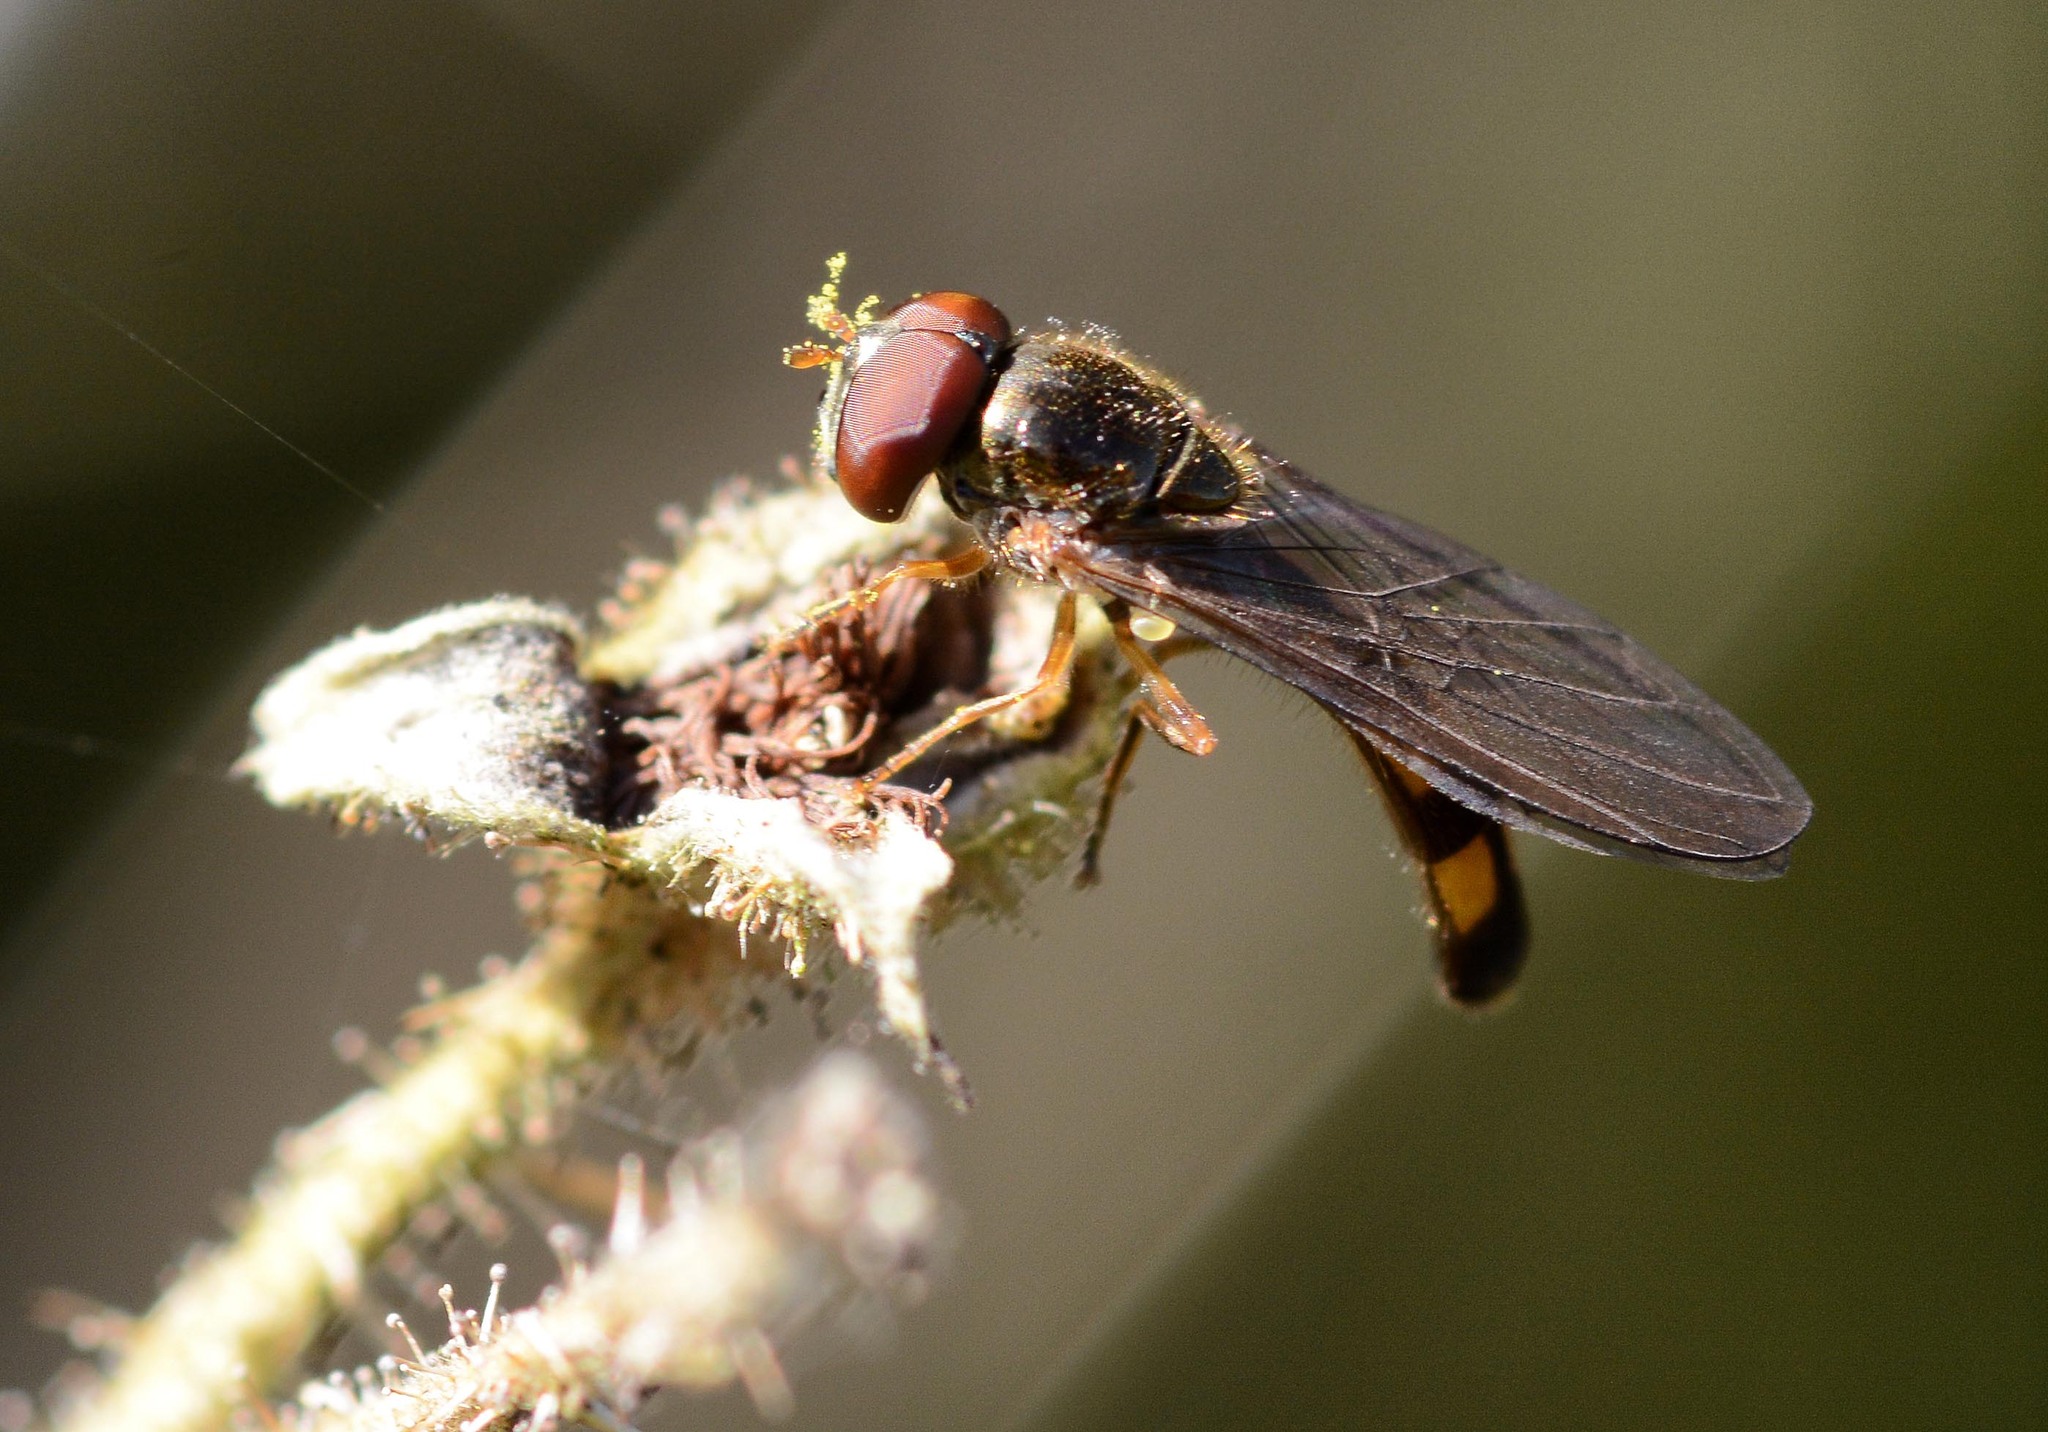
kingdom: Animalia
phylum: Arthropoda
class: Insecta
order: Diptera
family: Syrphidae
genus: Melanostoma
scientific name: Melanostoma scalare
